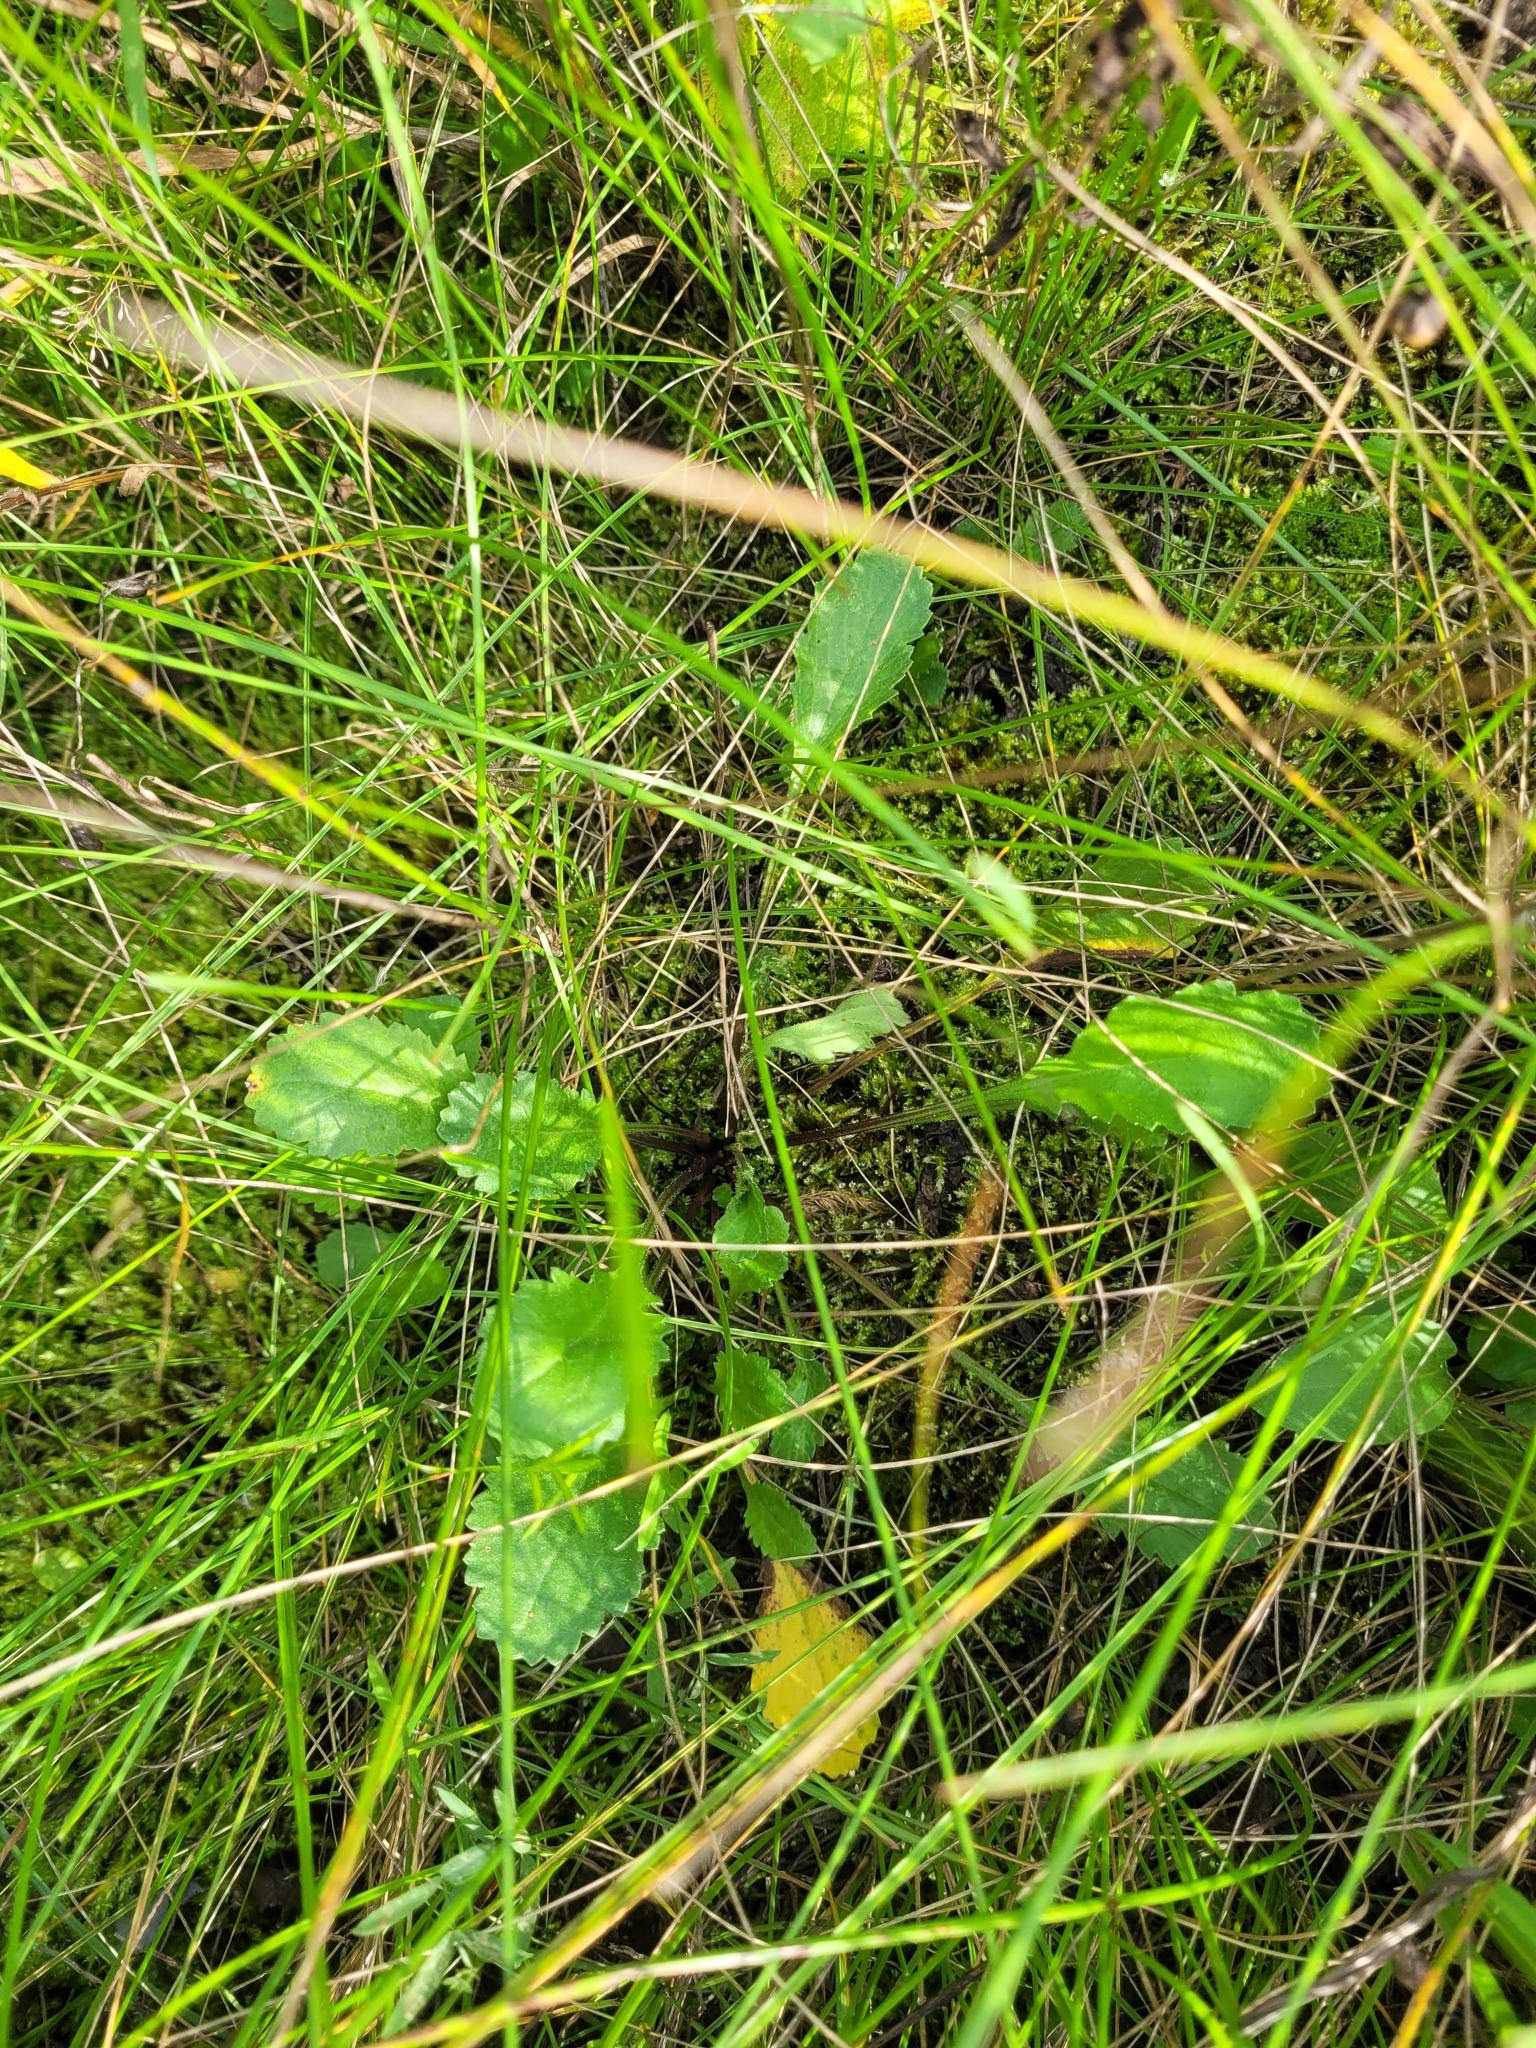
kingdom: Plantae
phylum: Tracheophyta
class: Magnoliopsida
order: Asterales
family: Asteraceae
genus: Leucanthemum
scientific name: Leucanthemum vulgare
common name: Oxeye daisy
